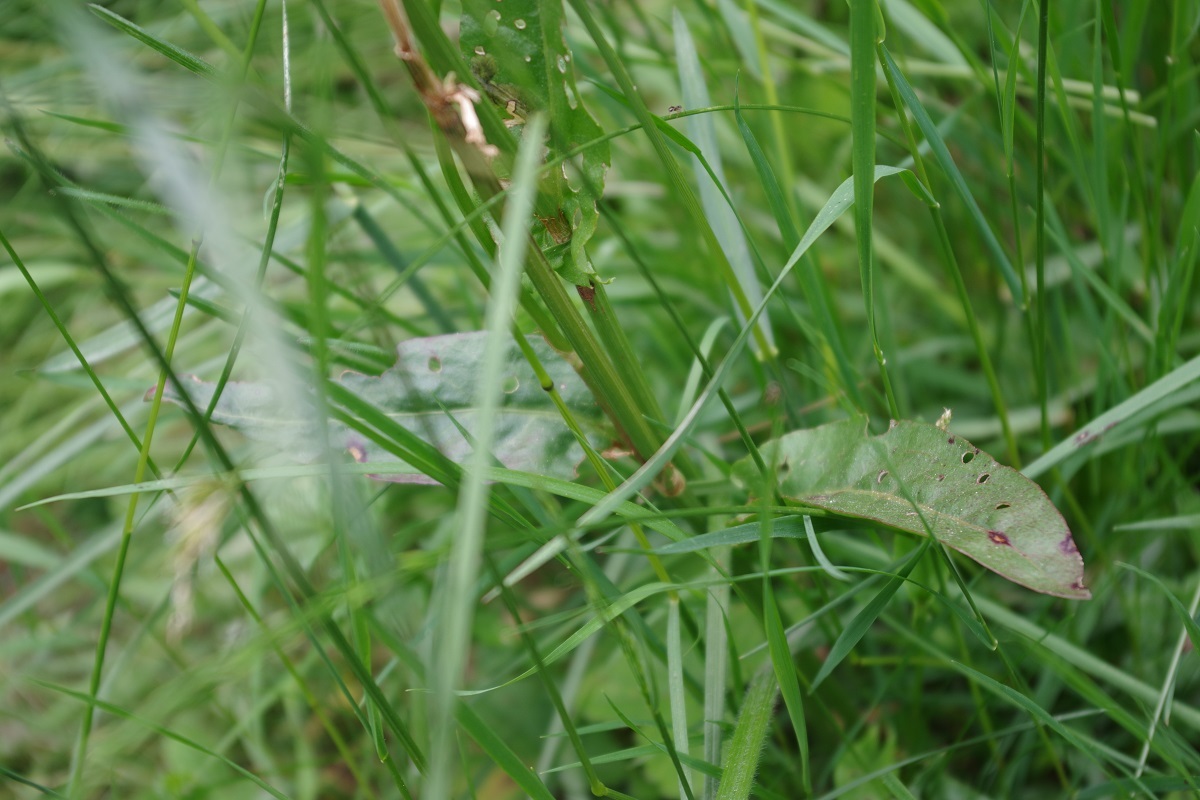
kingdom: Plantae
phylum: Tracheophyta
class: Magnoliopsida
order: Caryophyllales
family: Polygonaceae
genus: Rumex
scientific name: Rumex acetosa
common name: Garden sorrel
